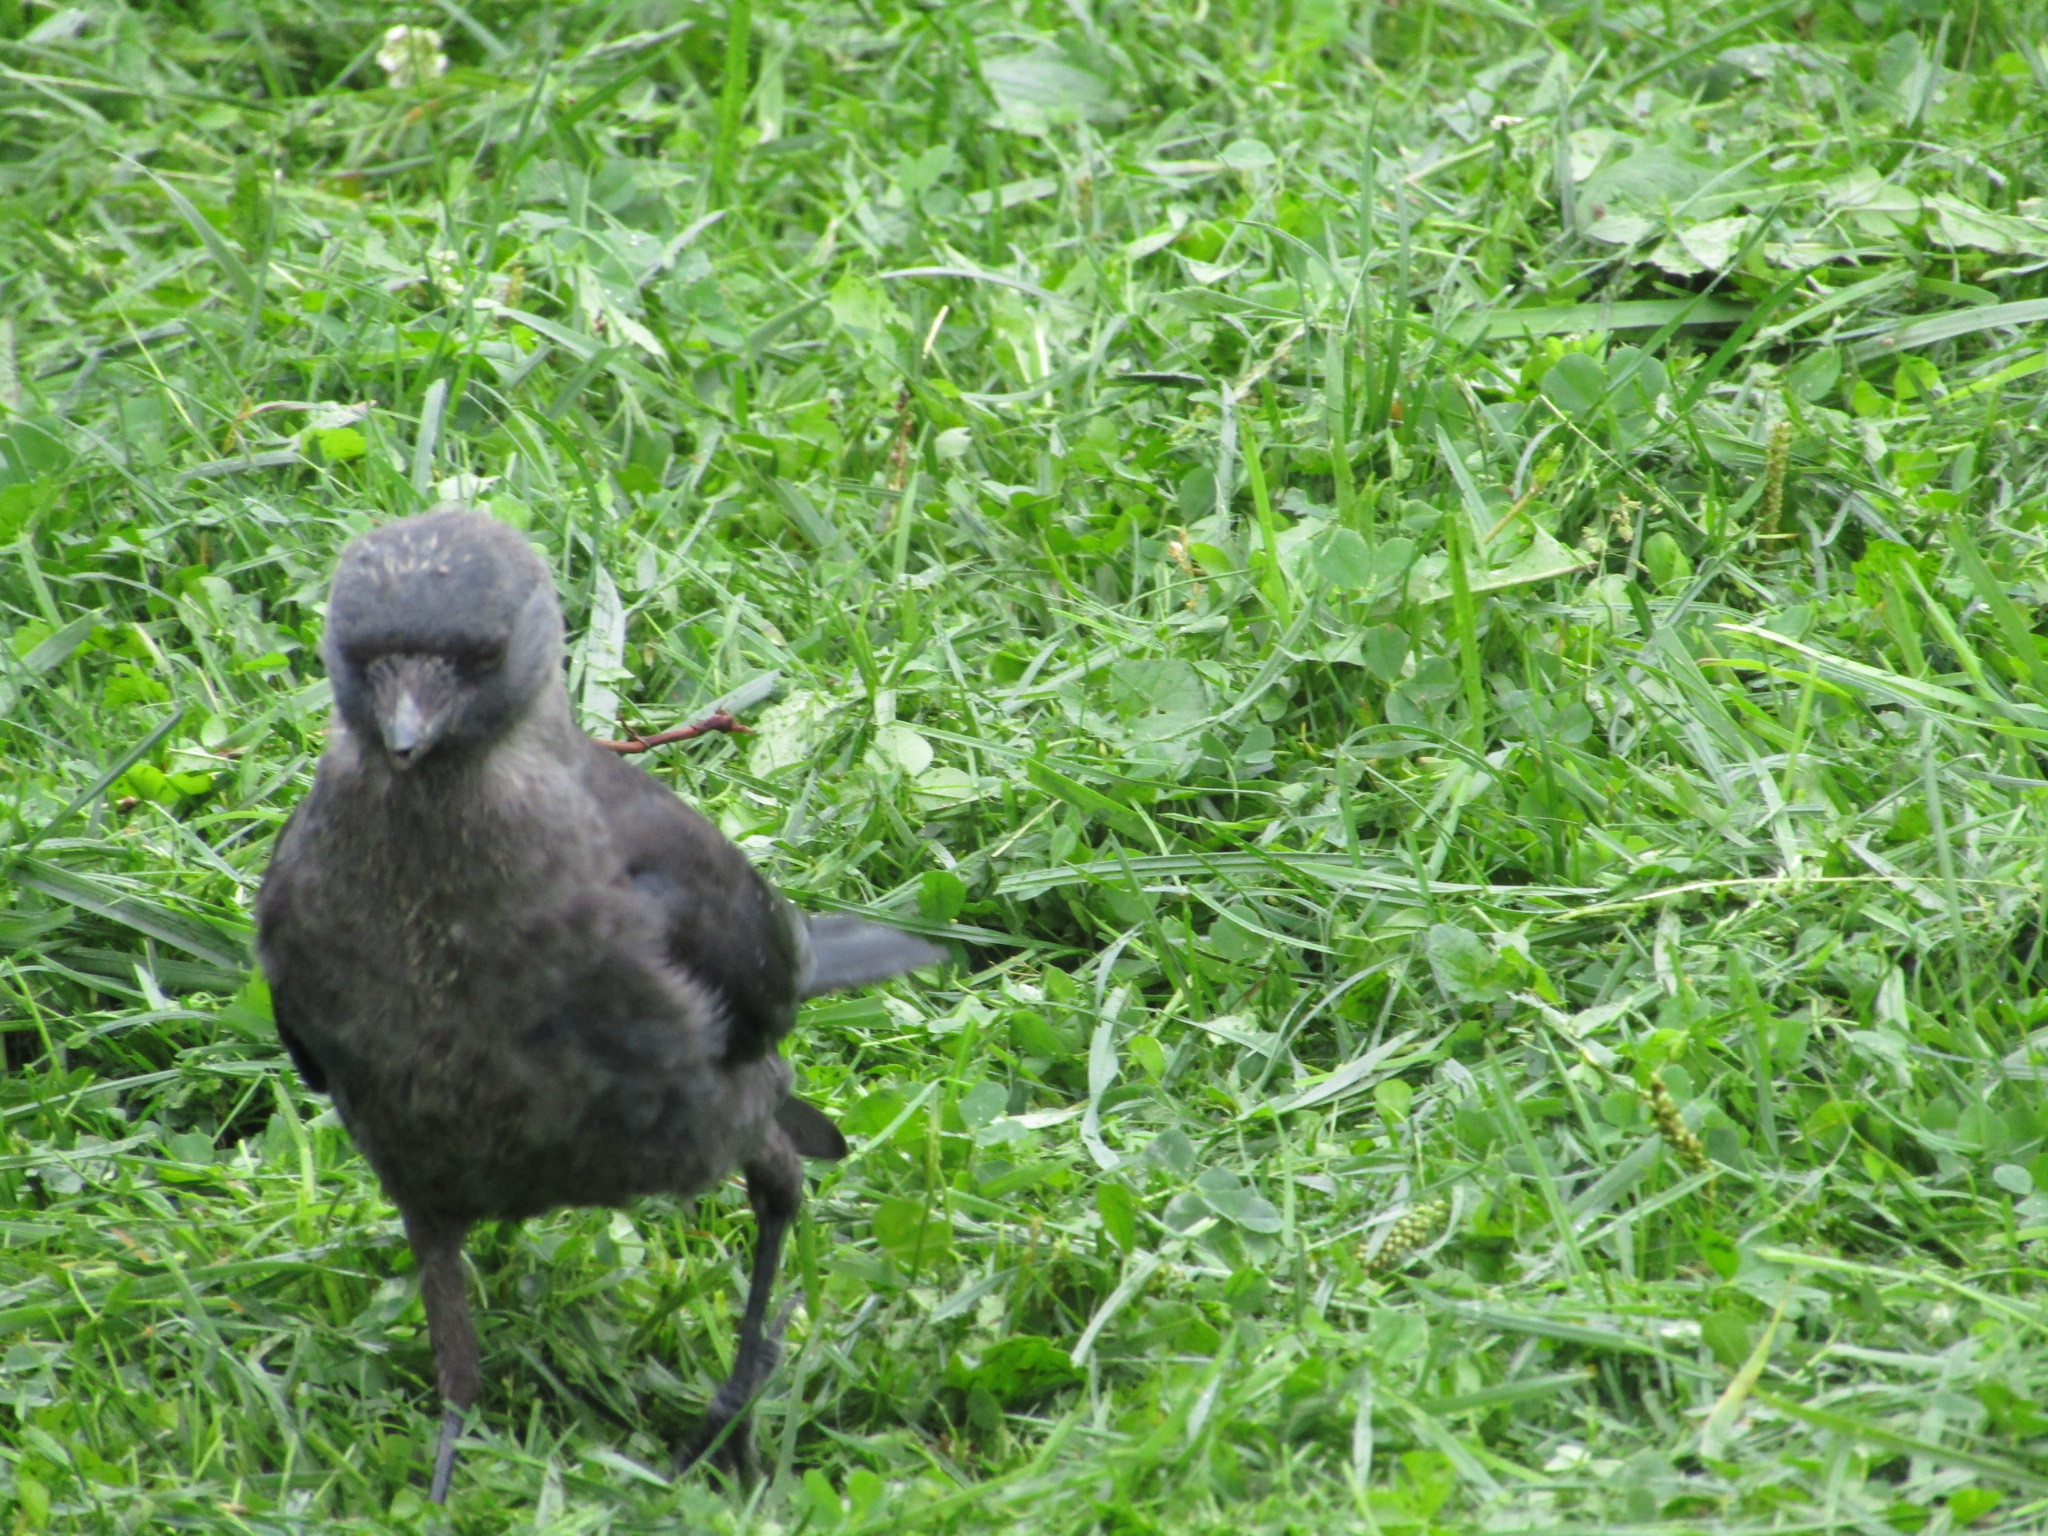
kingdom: Animalia
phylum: Chordata
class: Aves
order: Passeriformes
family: Corvidae
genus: Coloeus
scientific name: Coloeus monedula
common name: Western jackdaw
